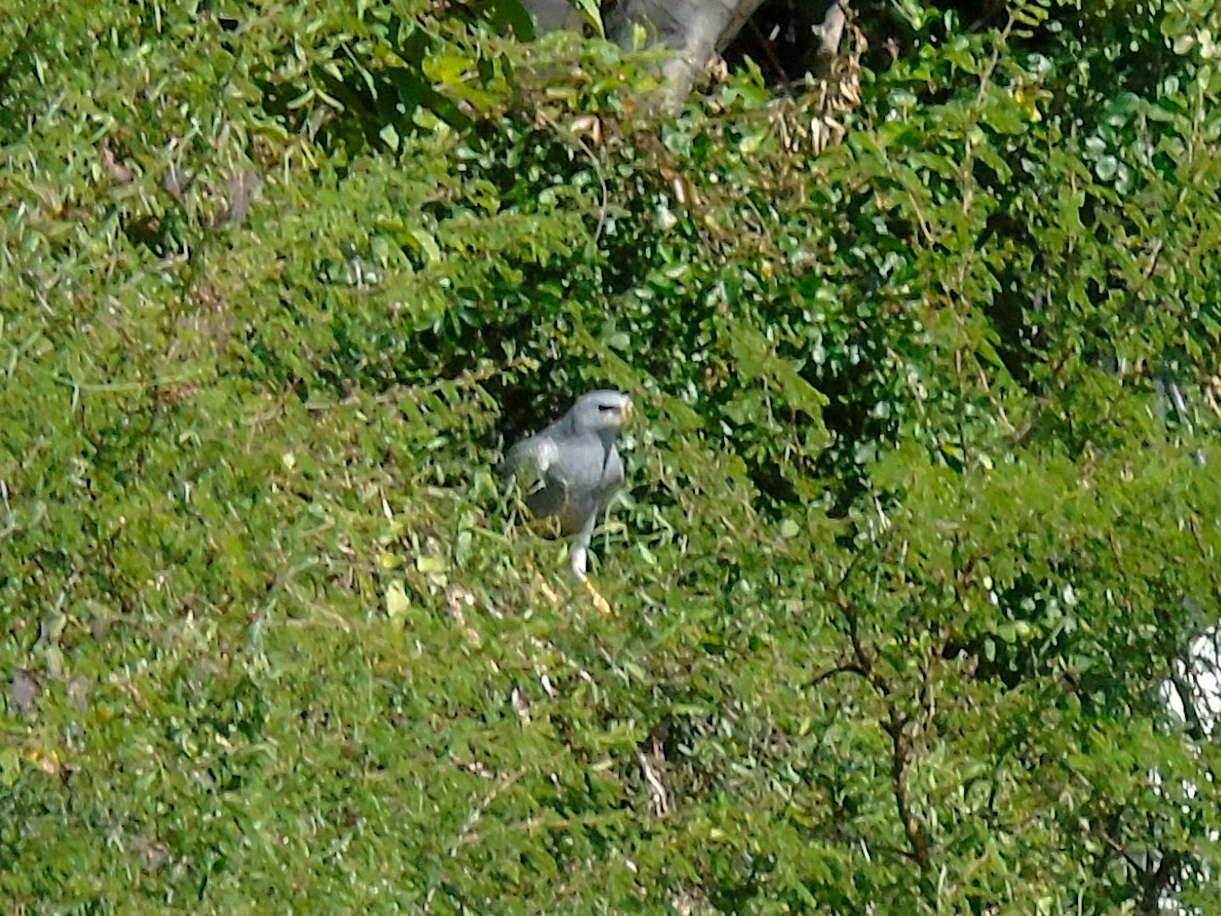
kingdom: Animalia
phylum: Chordata
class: Aves
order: Accipitriformes
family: Accipitridae
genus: Buteo
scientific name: Buteo nitidus
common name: Grey-lined hawk
